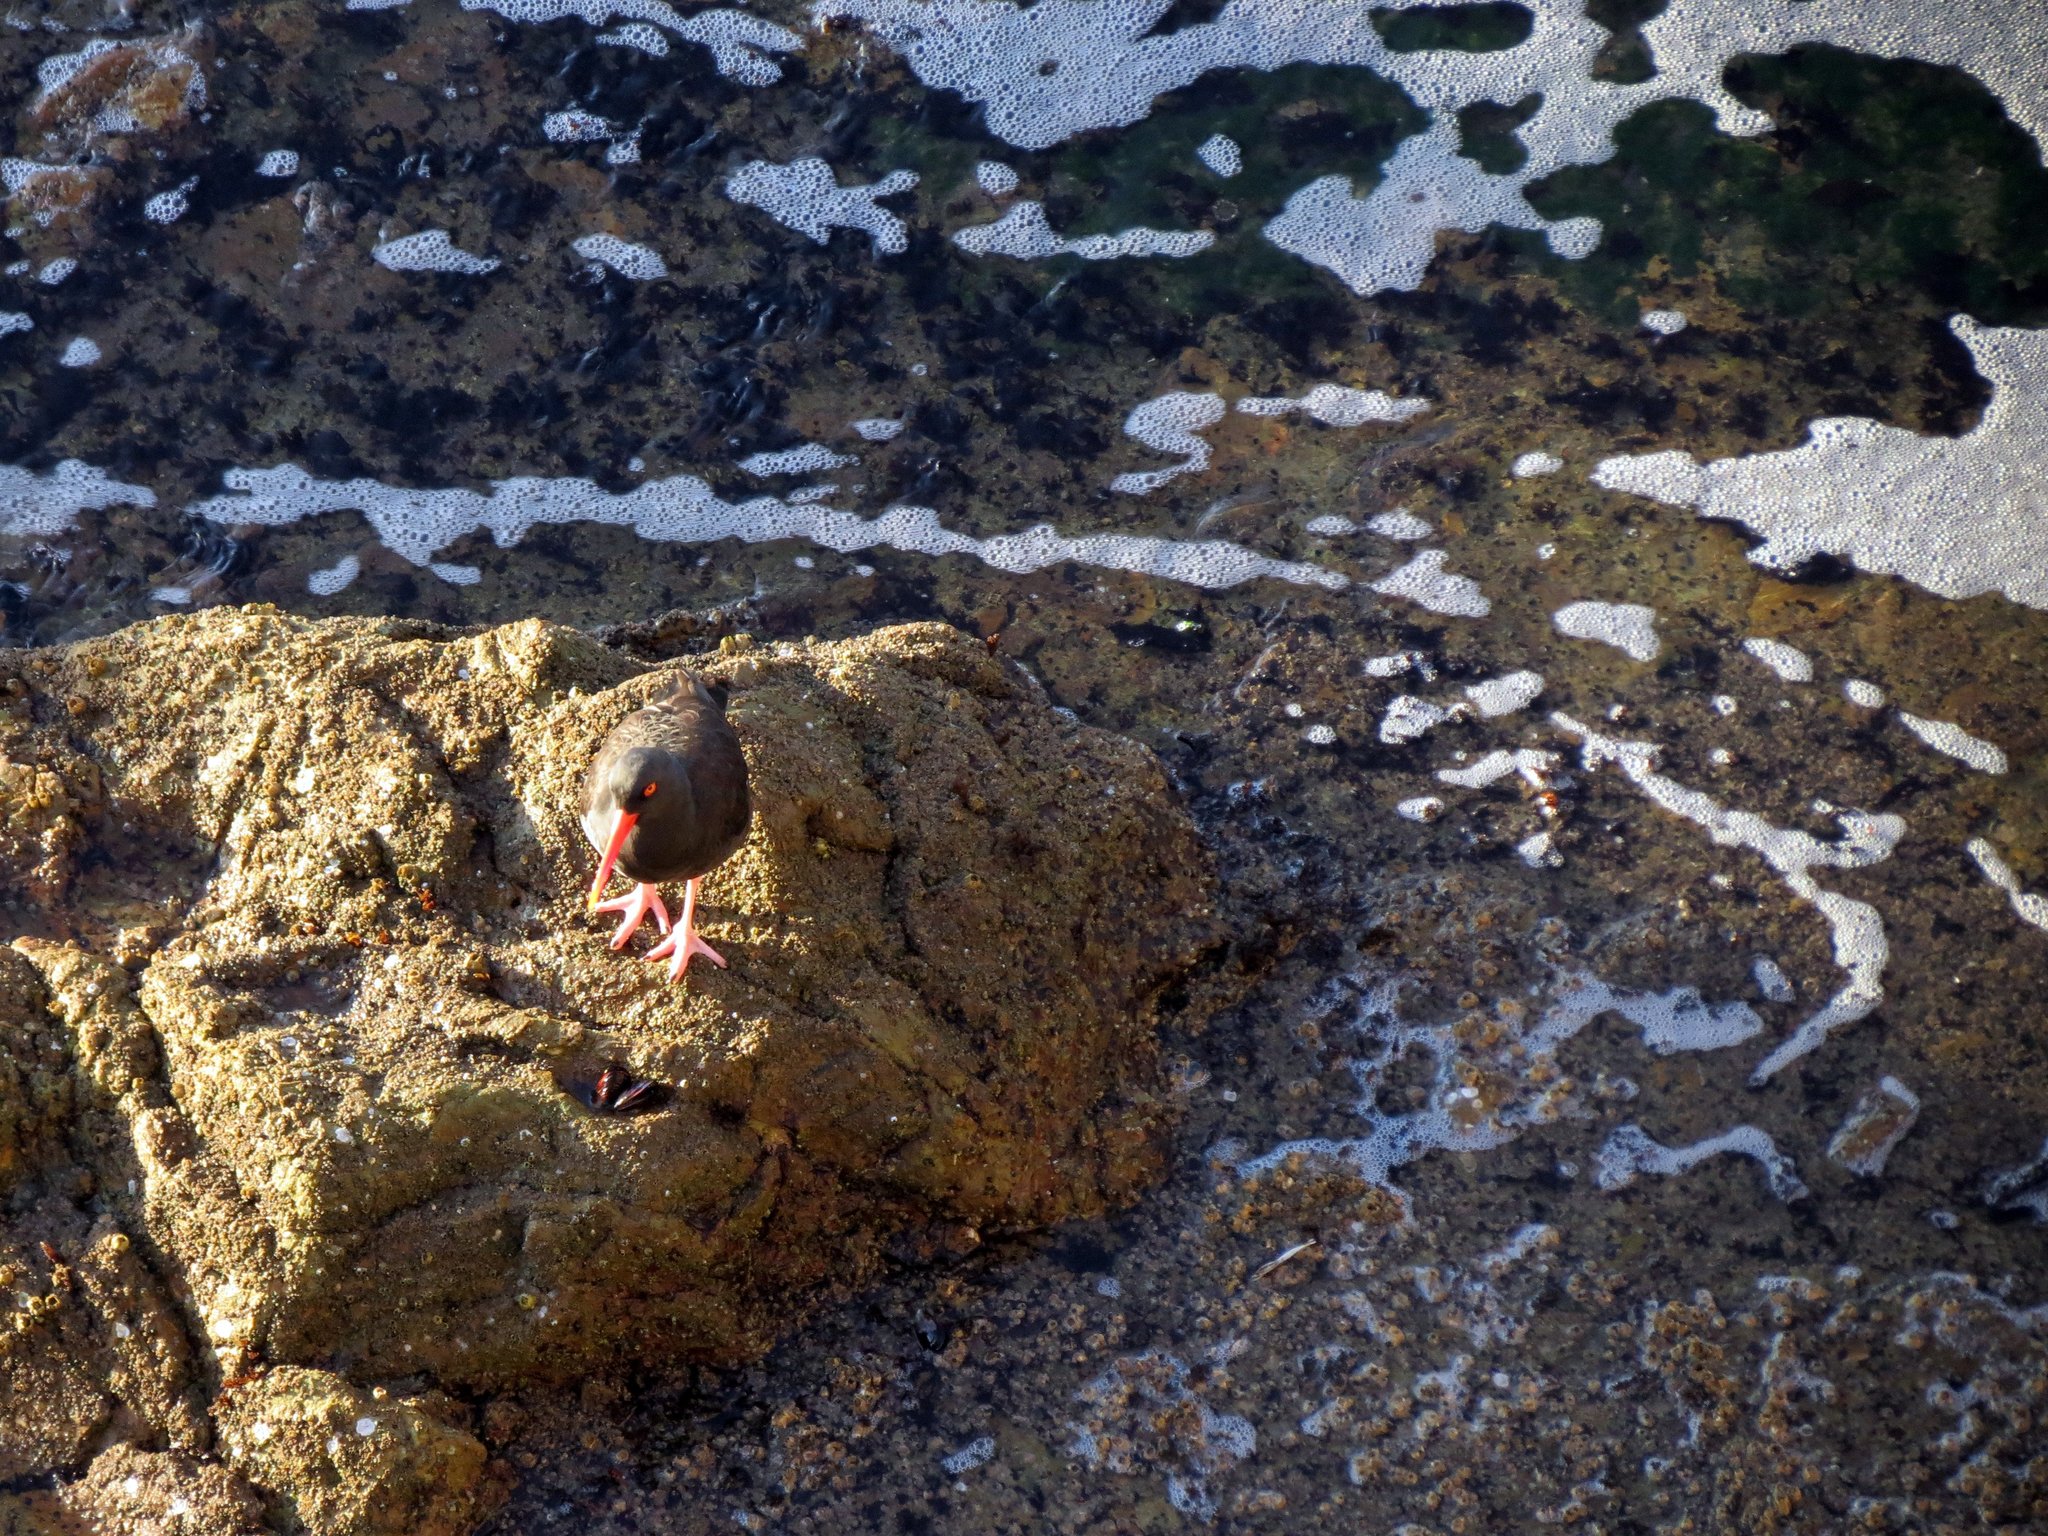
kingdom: Animalia
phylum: Chordata
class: Aves
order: Charadriiformes
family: Haematopodidae
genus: Haematopus
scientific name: Haematopus bachmani
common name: Black oystercatcher
